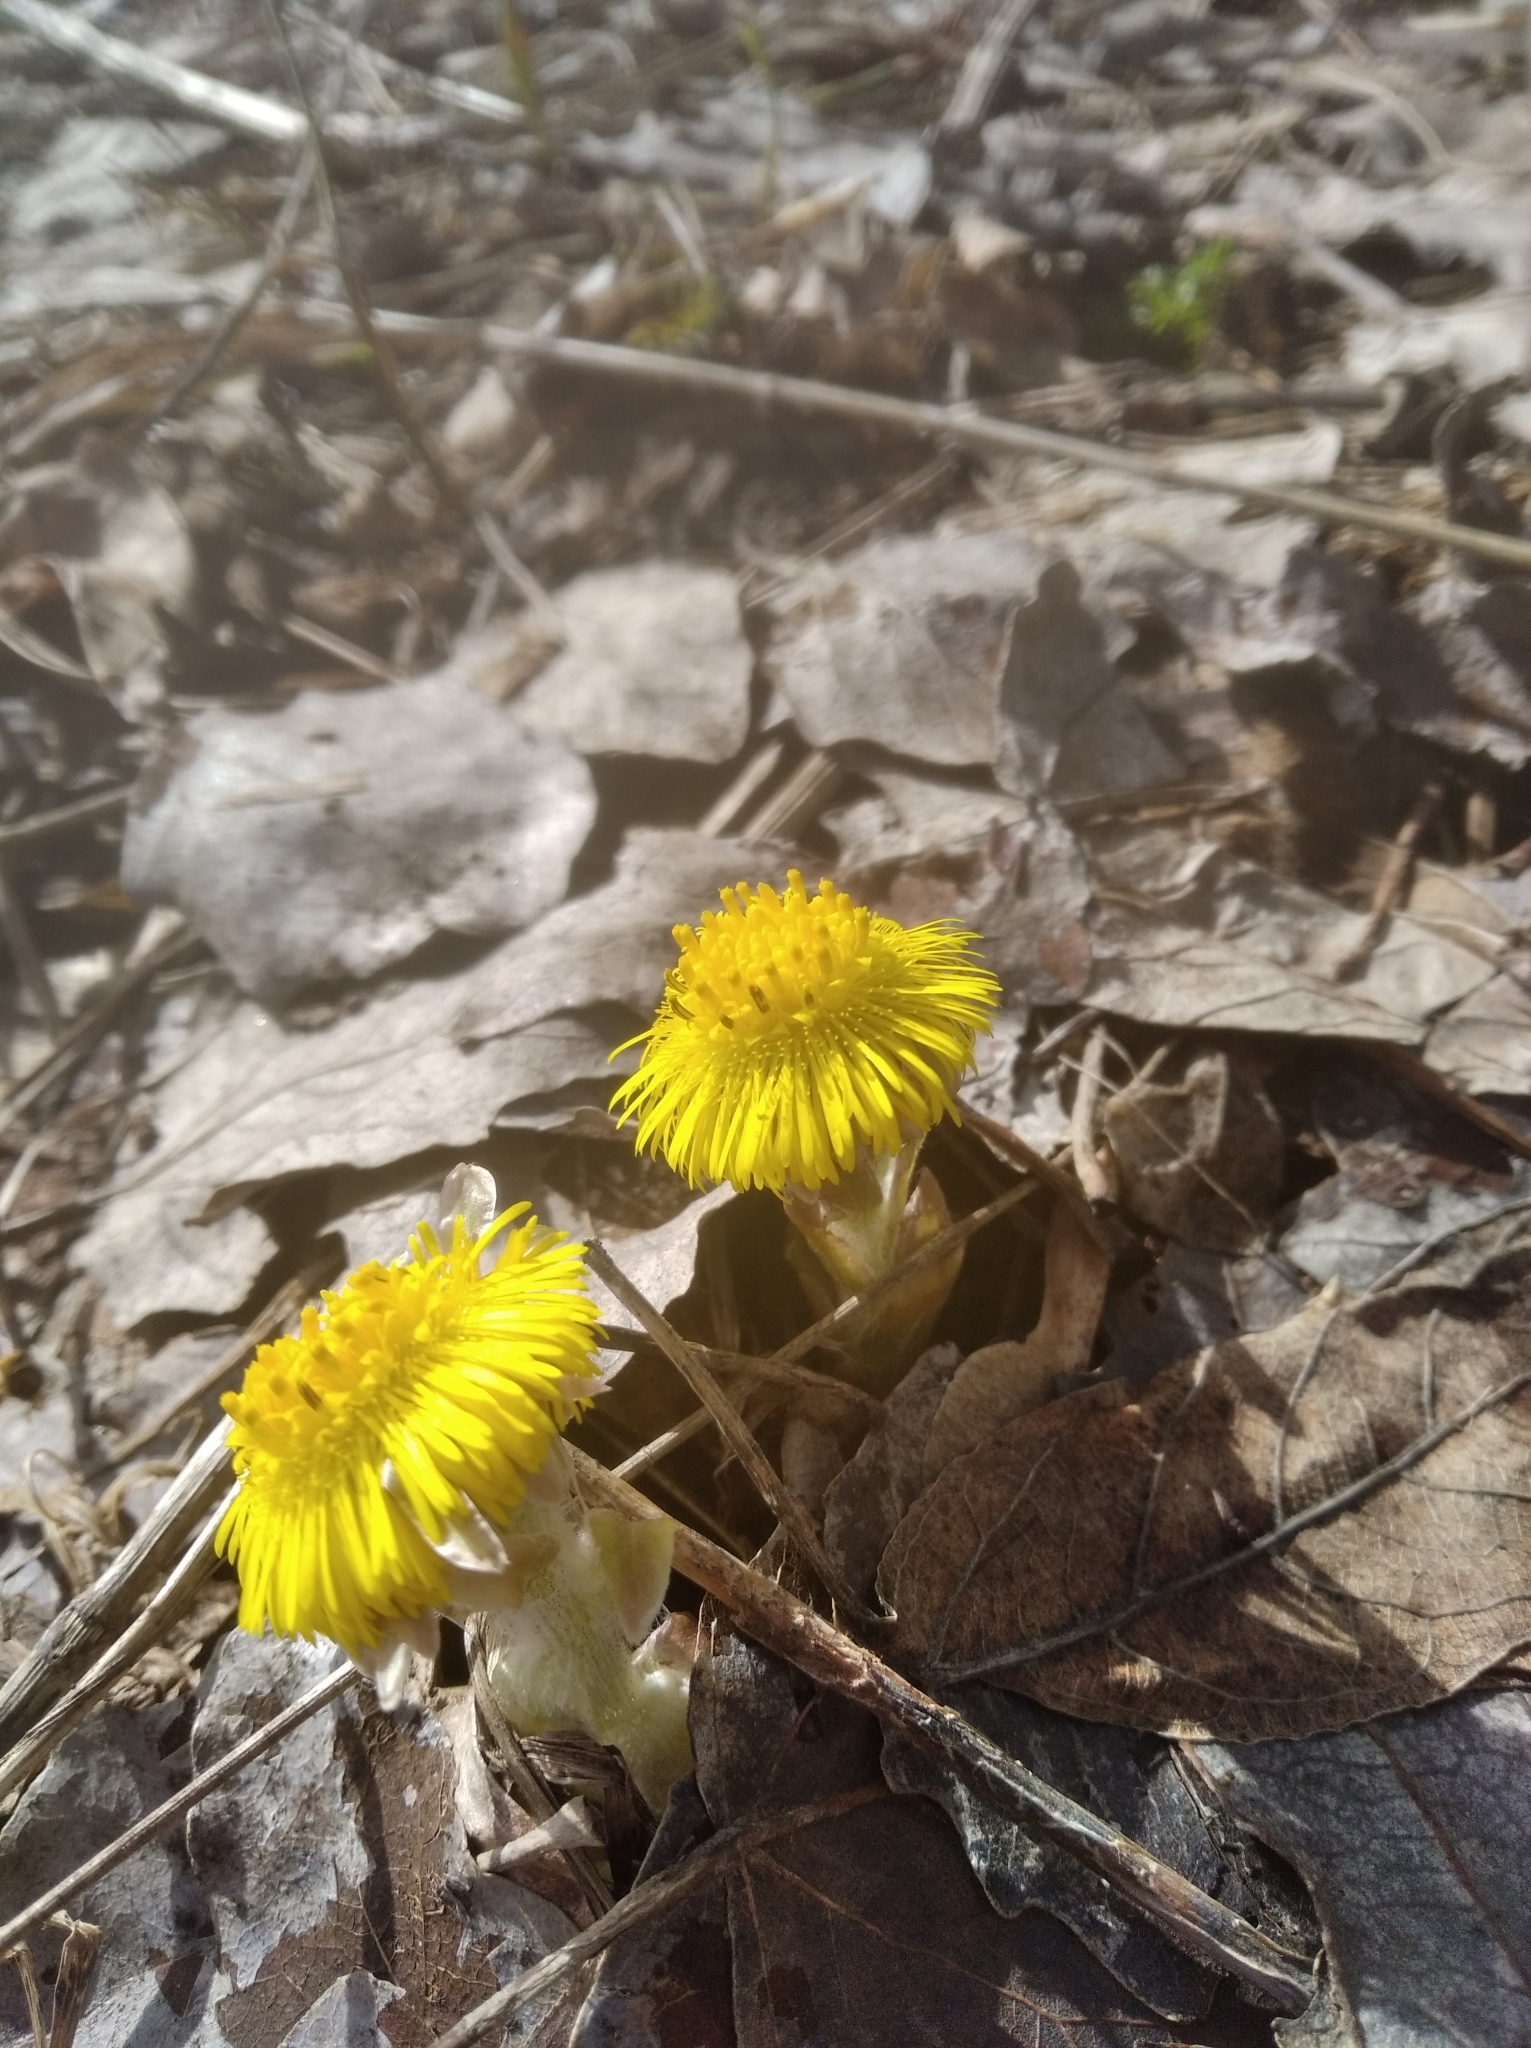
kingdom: Plantae
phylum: Tracheophyta
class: Magnoliopsida
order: Asterales
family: Asteraceae
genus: Tussilago
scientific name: Tussilago farfara
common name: Coltsfoot
